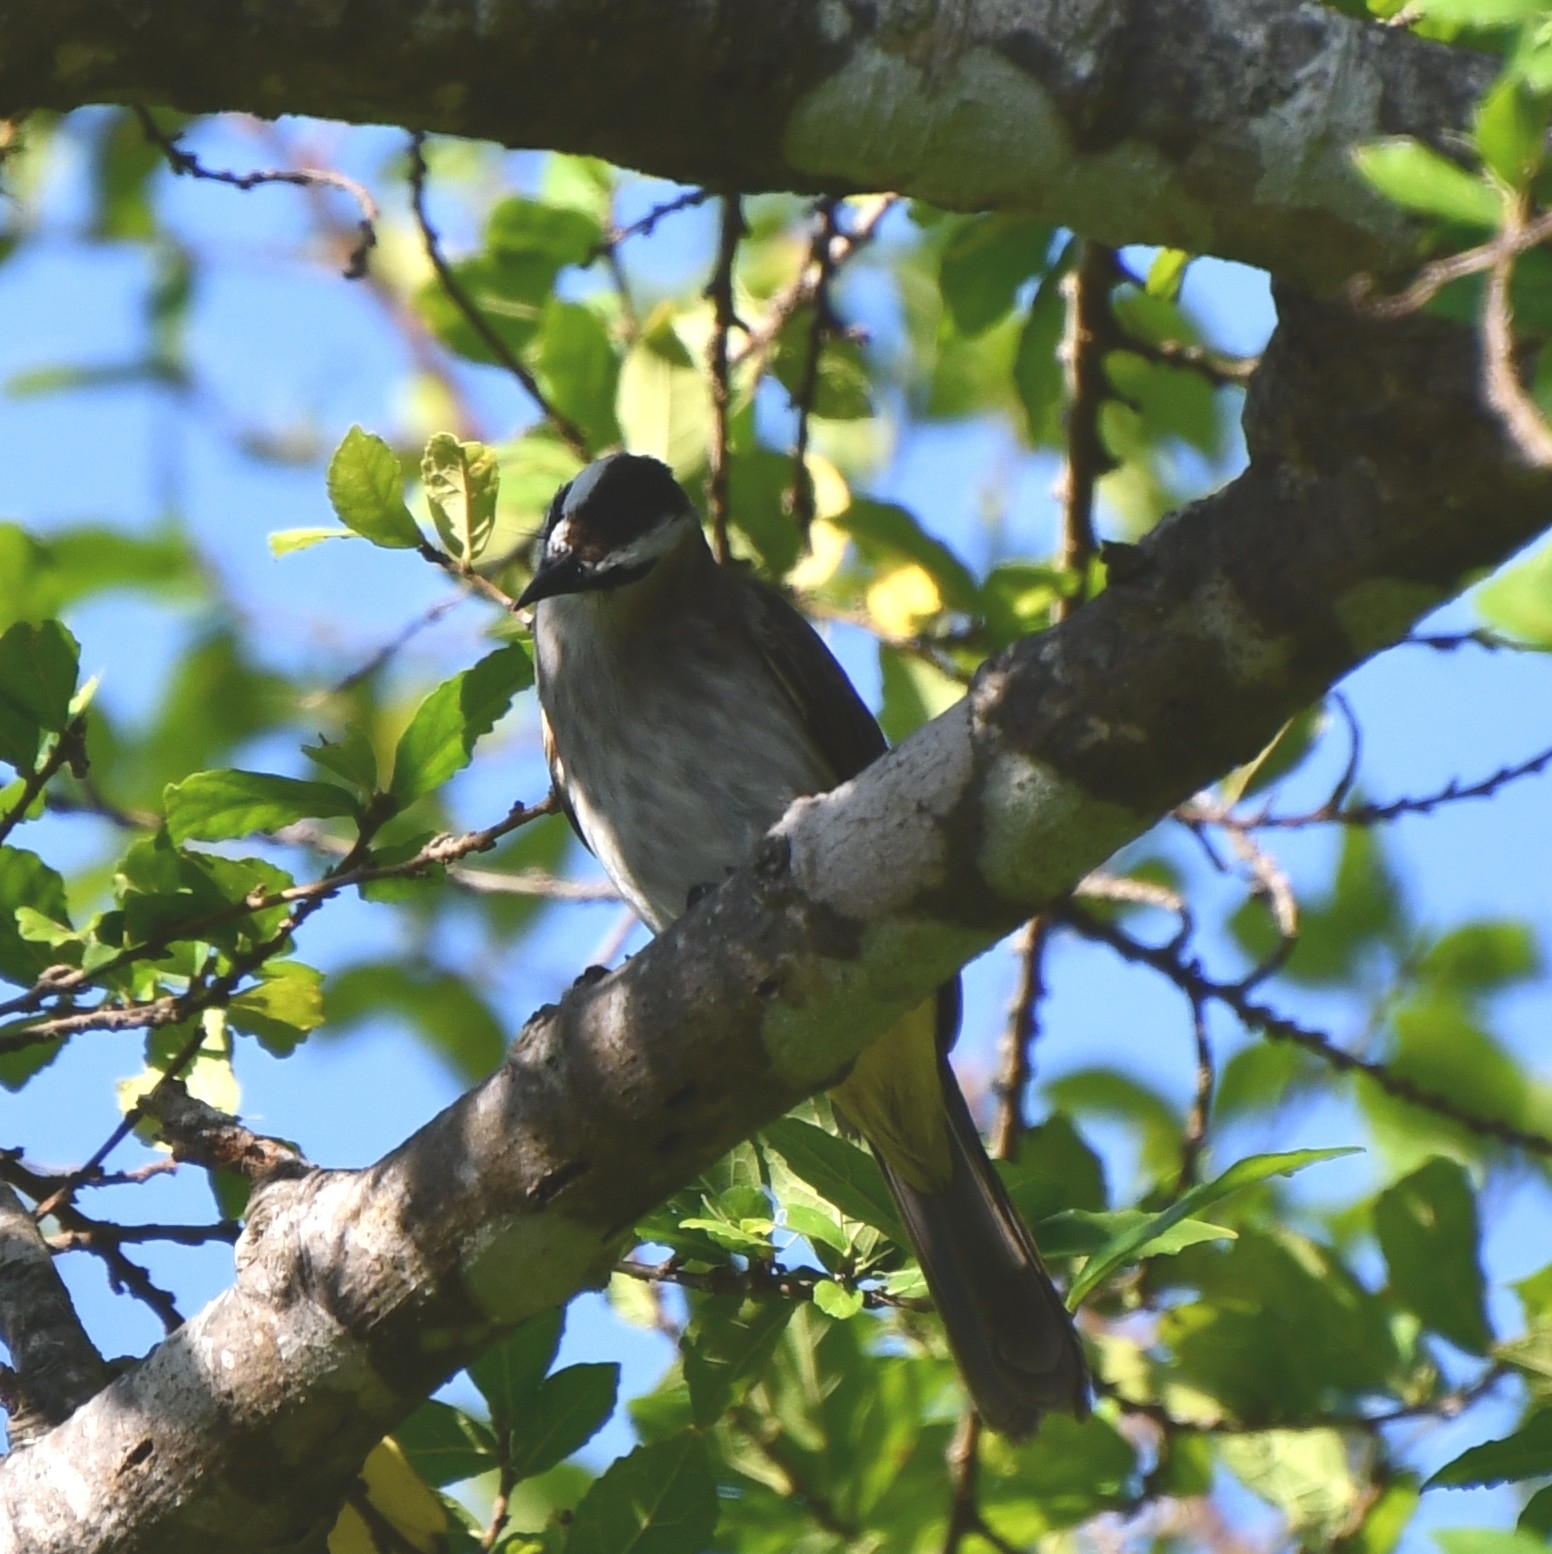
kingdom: Animalia
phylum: Chordata
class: Aves
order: Passeriformes
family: Pycnonotidae
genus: Pycnonotus
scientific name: Pycnonotus goiavier
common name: Yellow-vented bulbul
